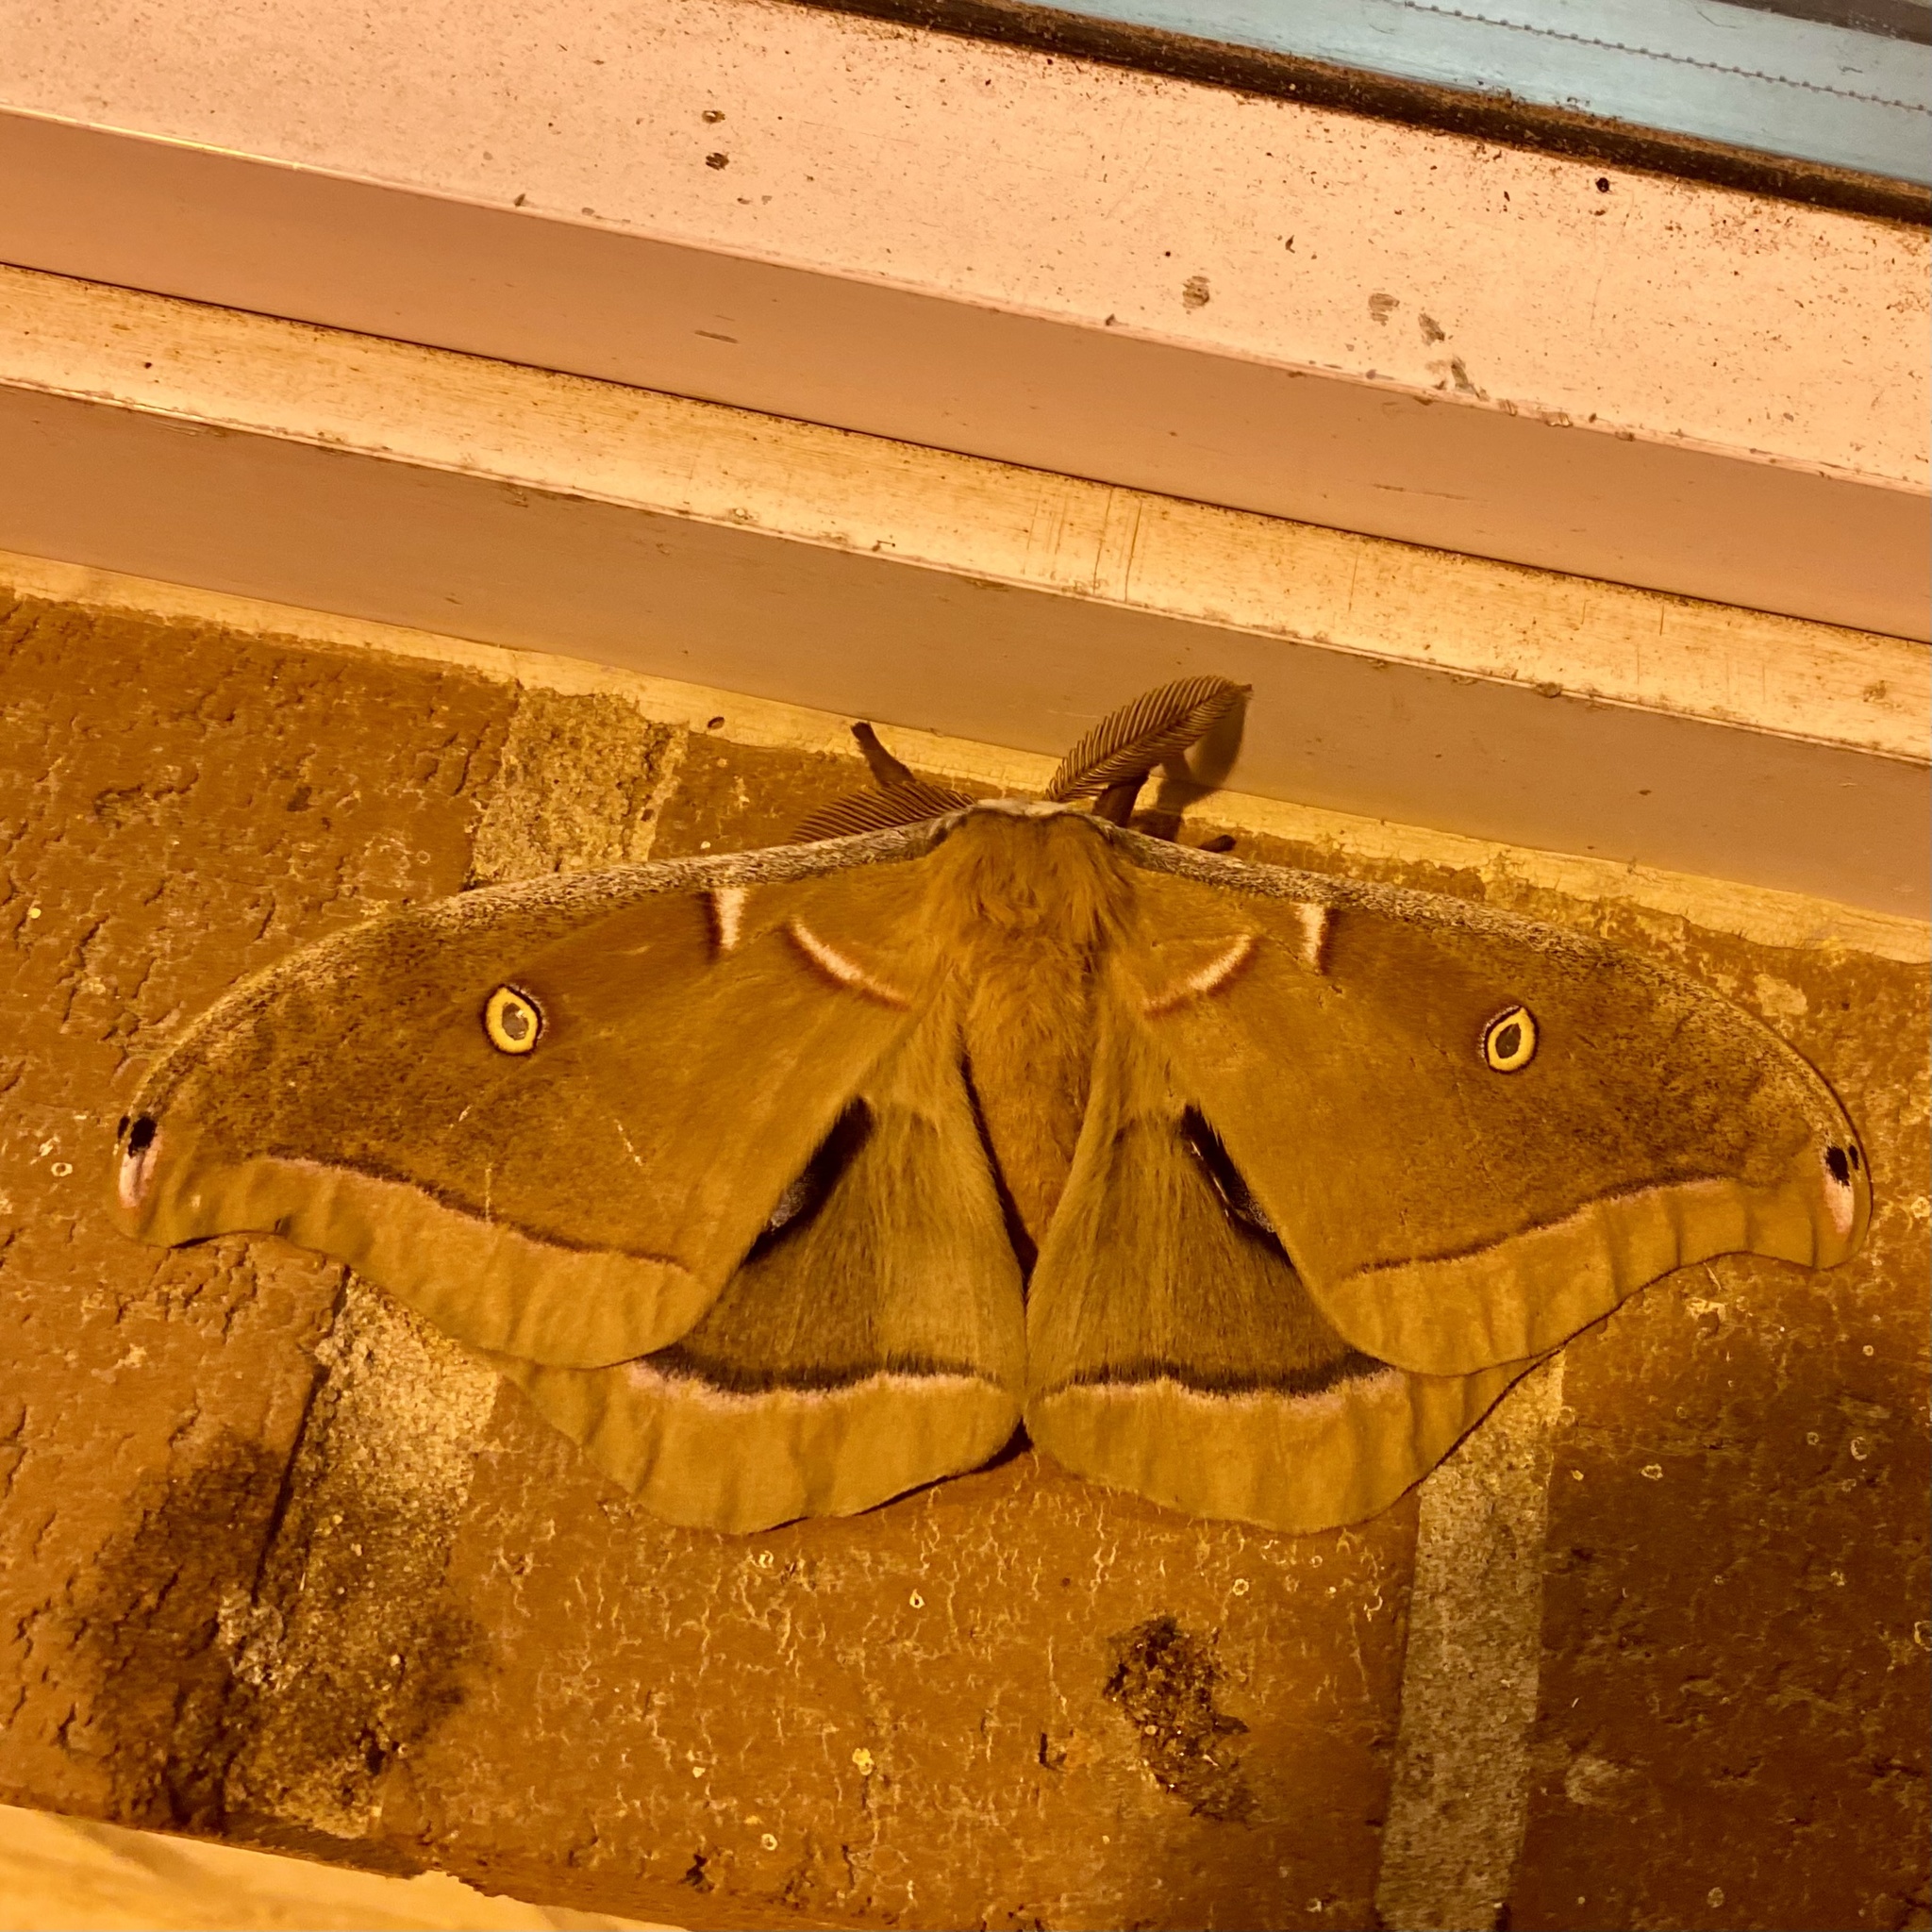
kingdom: Animalia
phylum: Arthropoda
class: Insecta
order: Lepidoptera
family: Saturniidae
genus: Antheraea
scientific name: Antheraea polyphemus
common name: Polyphemus moth
